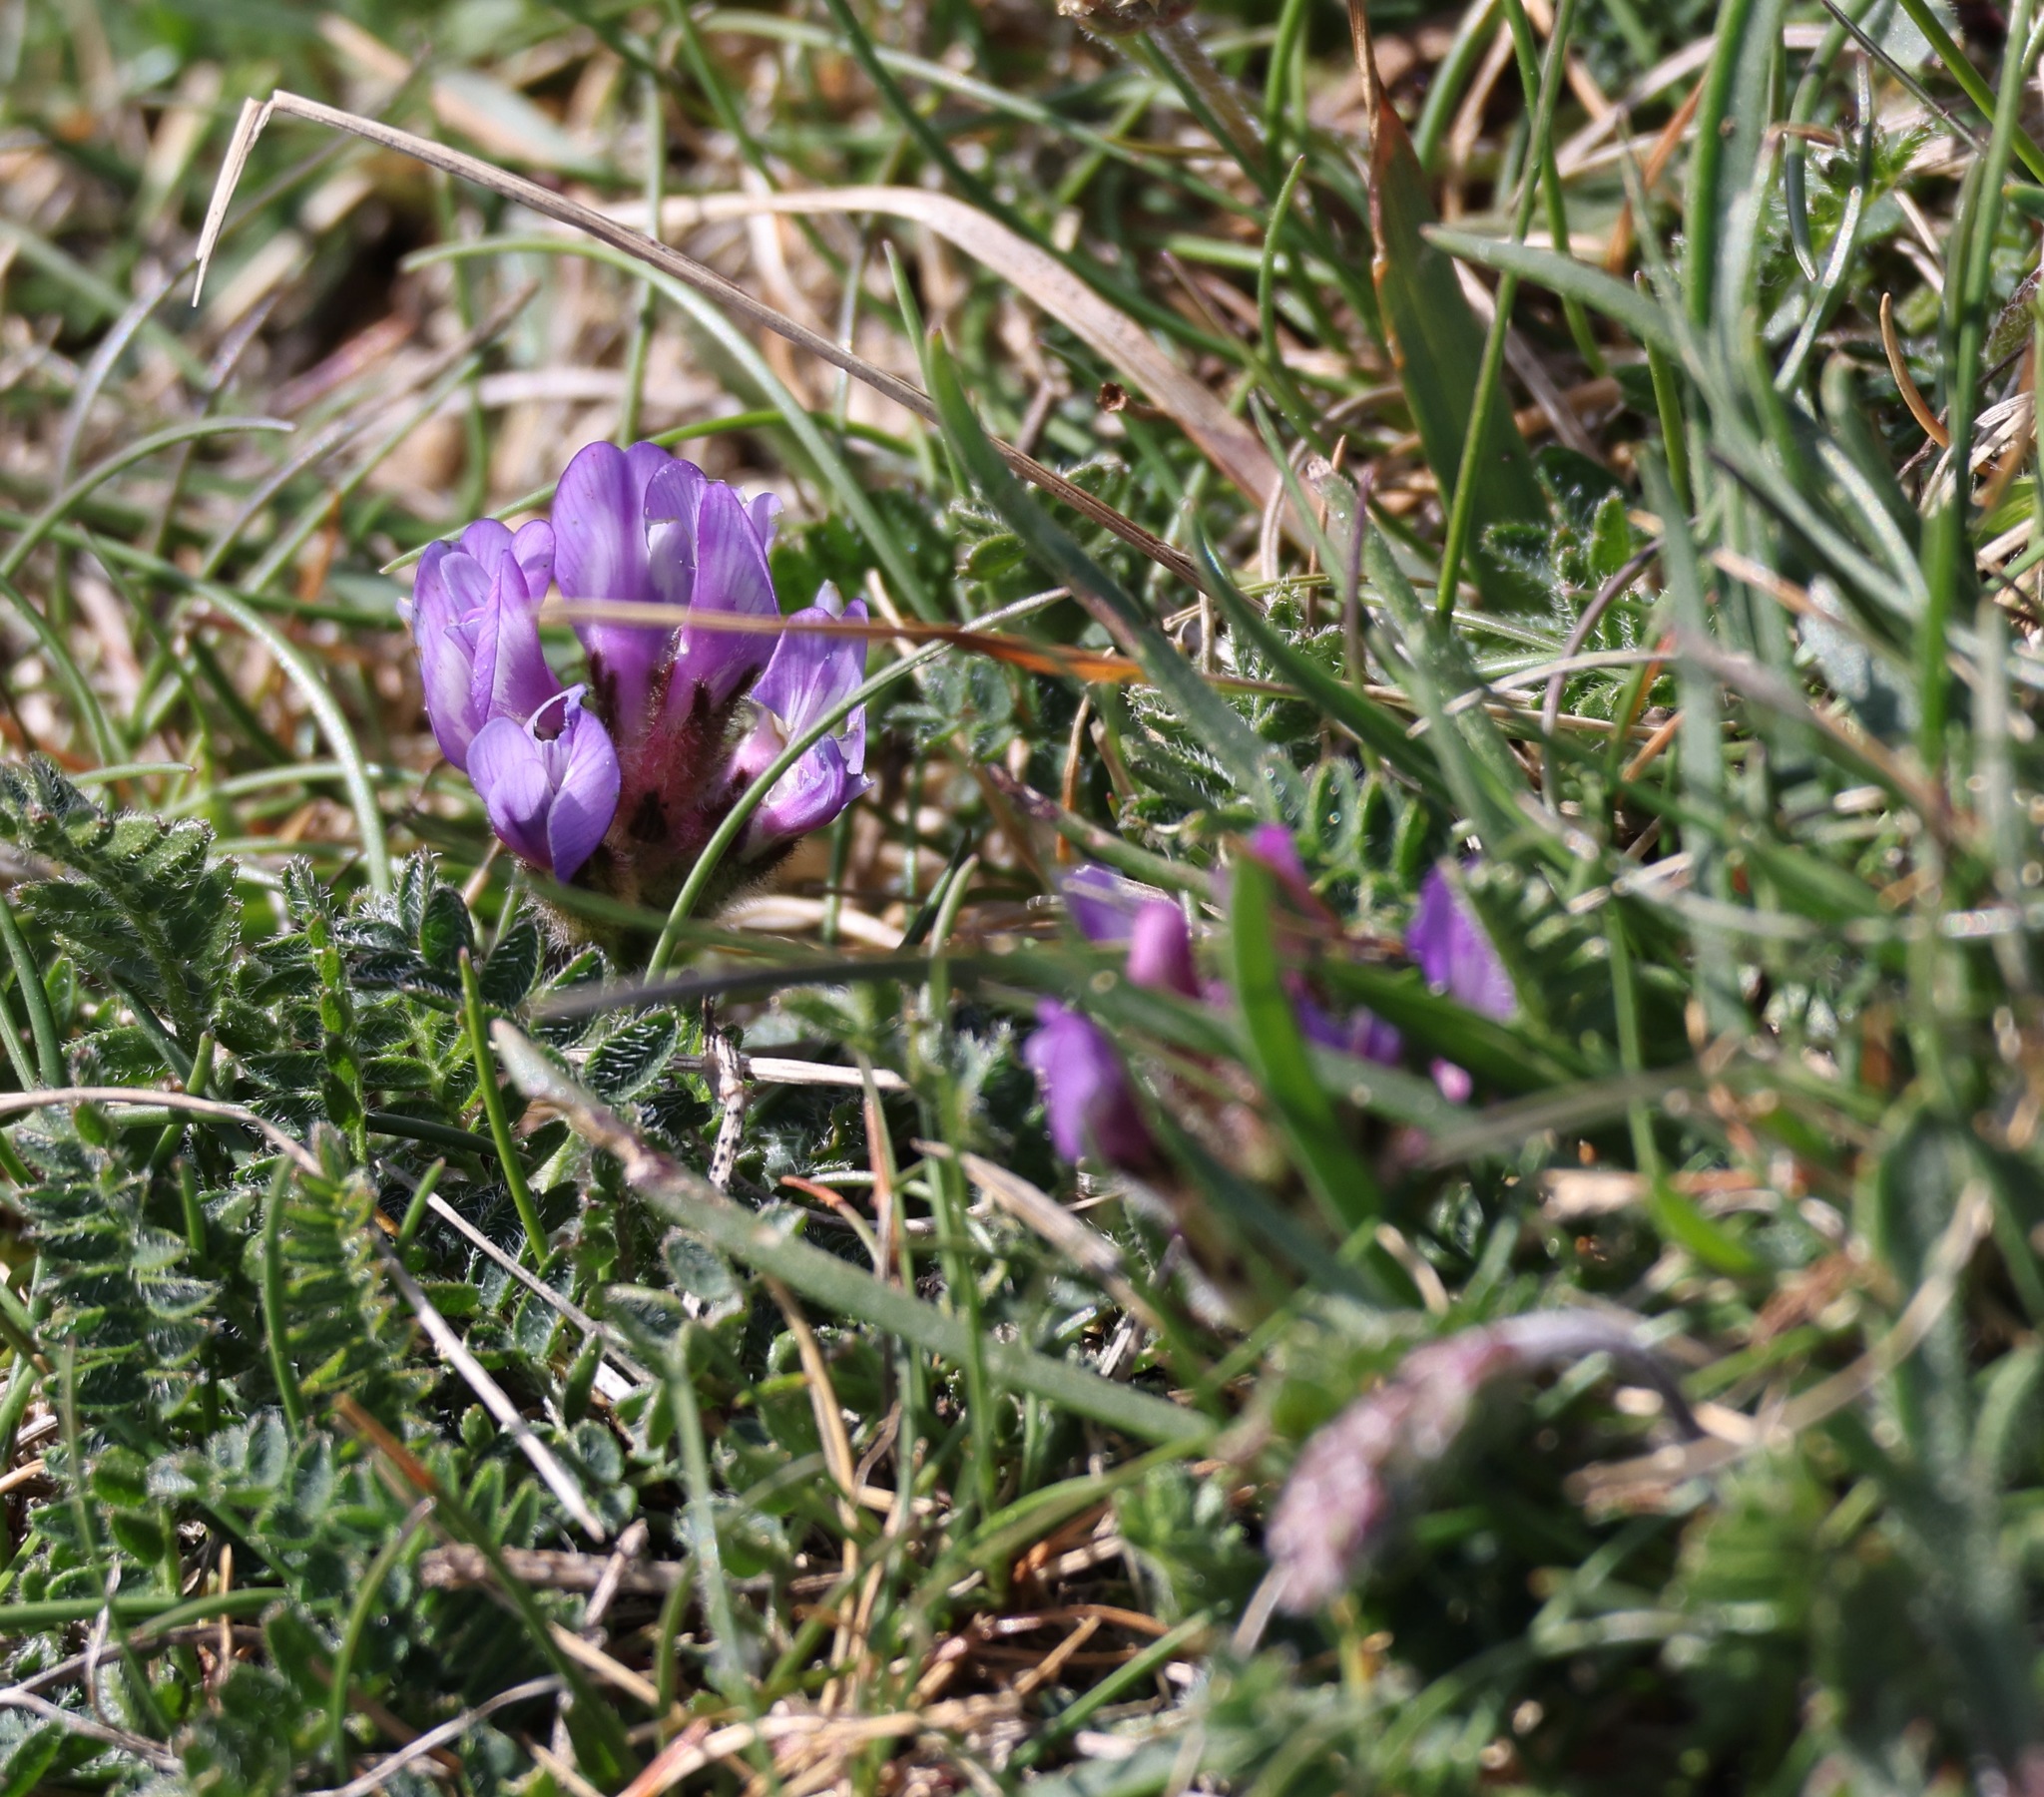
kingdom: Plantae
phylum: Tracheophyta
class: Magnoliopsida
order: Fabales
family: Fabaceae
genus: Astragalus
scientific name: Astragalus danicus
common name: Purple milk-vetch
